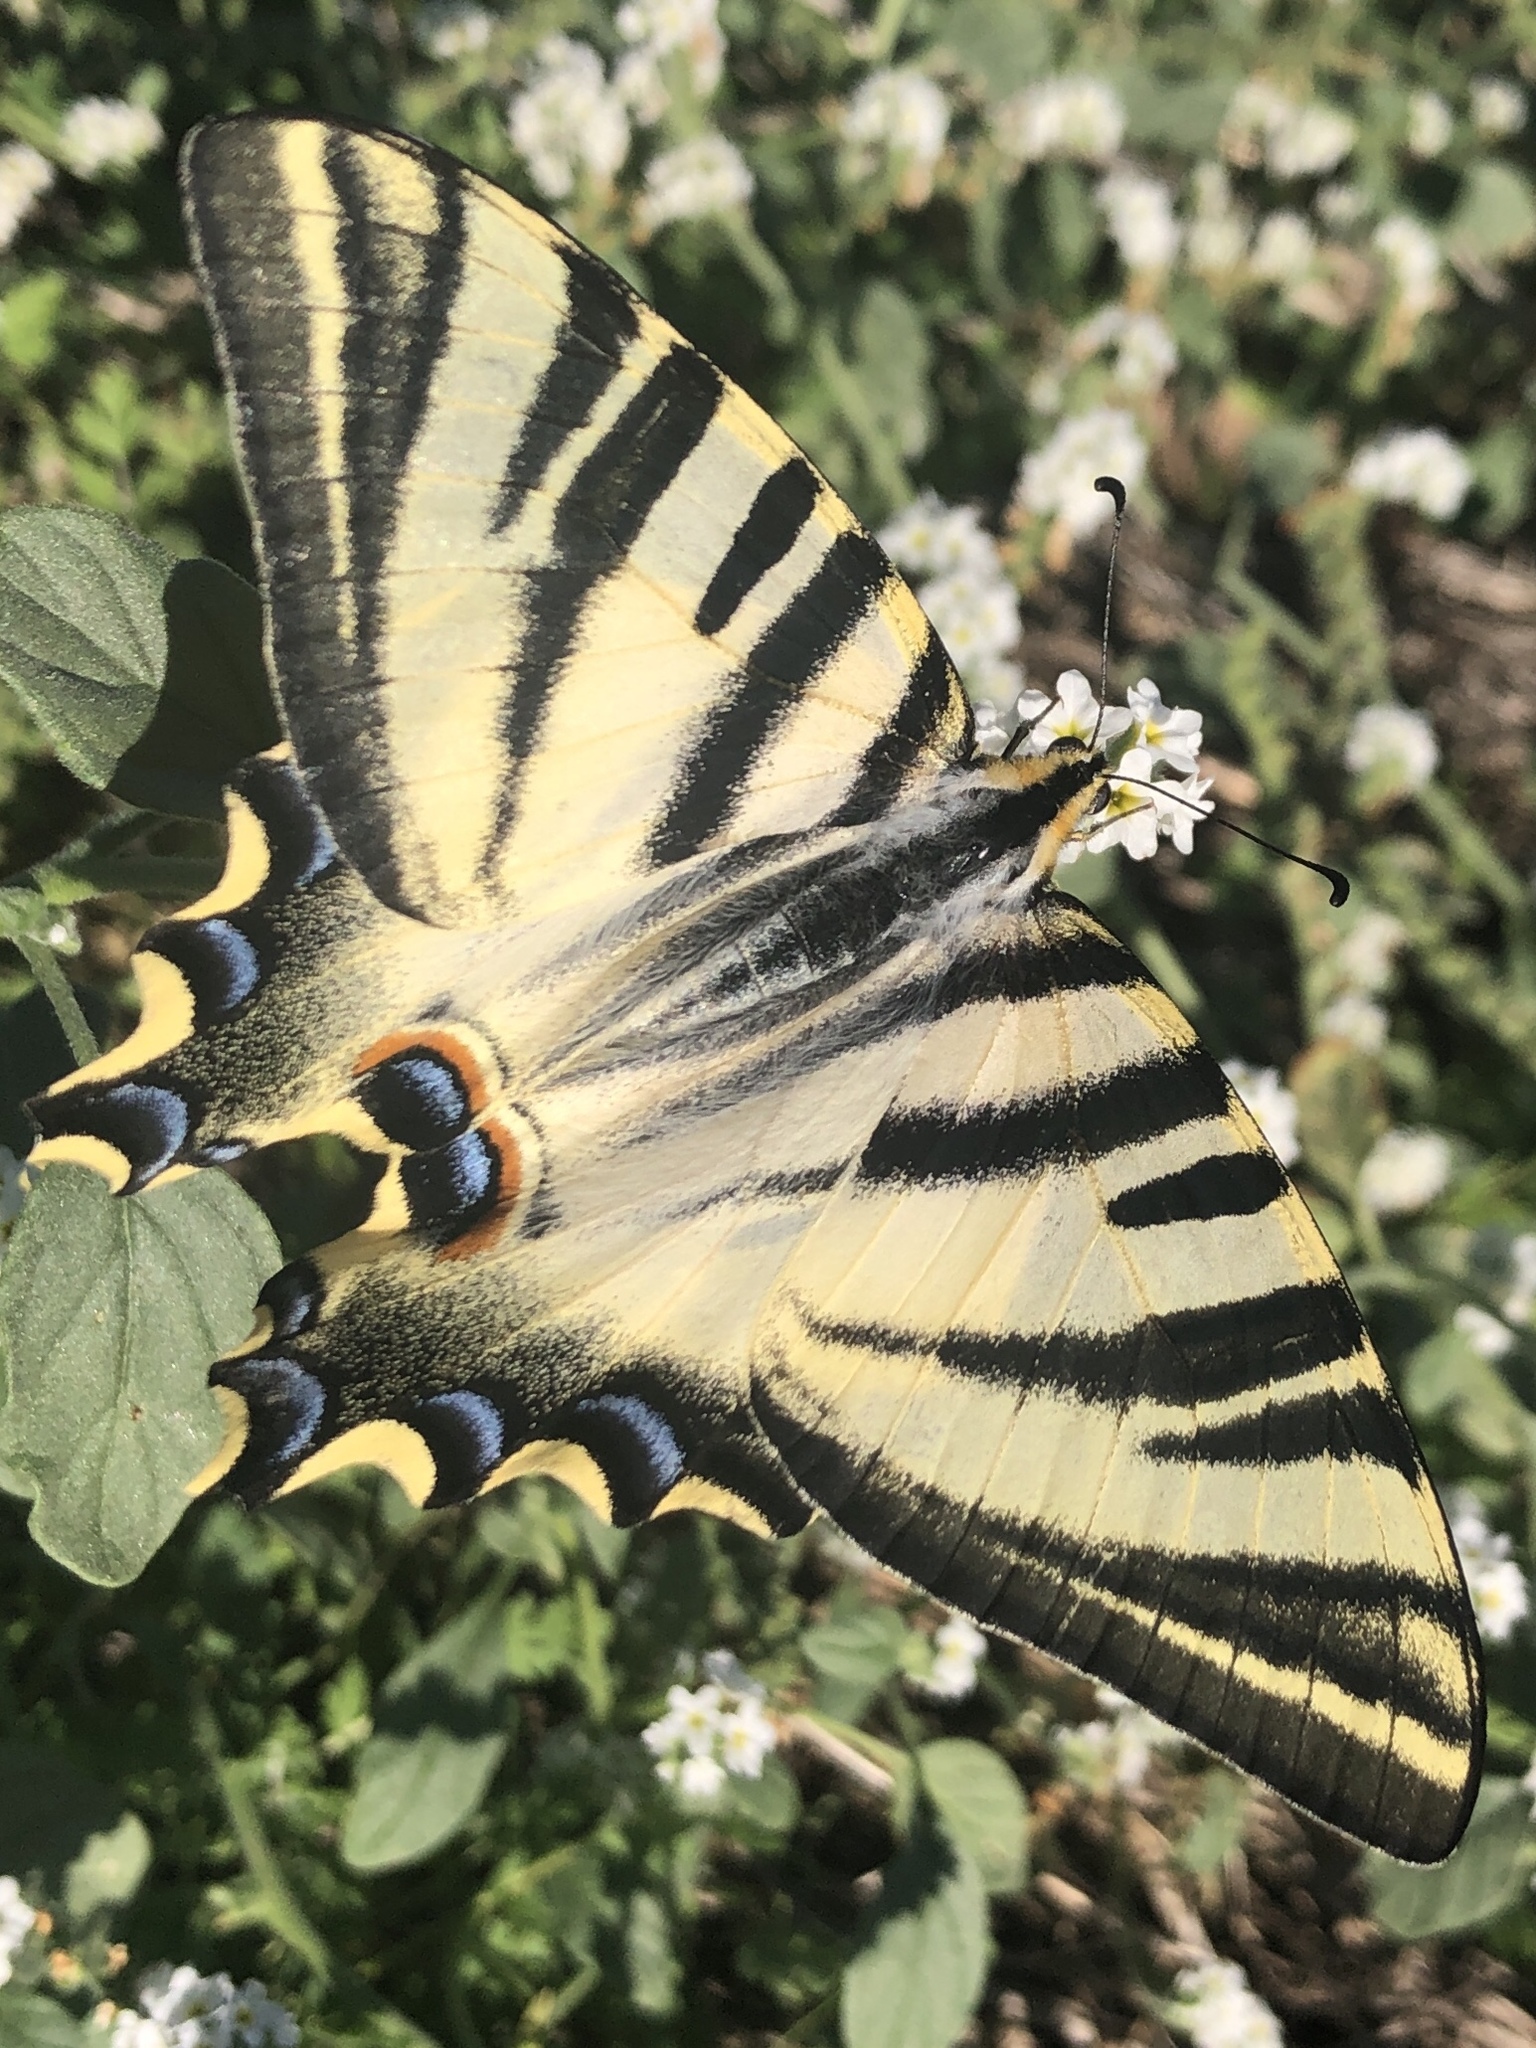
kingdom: Animalia
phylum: Arthropoda
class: Insecta
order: Lepidoptera
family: Papilionidae
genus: Iphiclides
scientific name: Iphiclides feisthamelii
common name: Iberian scarce swallowtail
